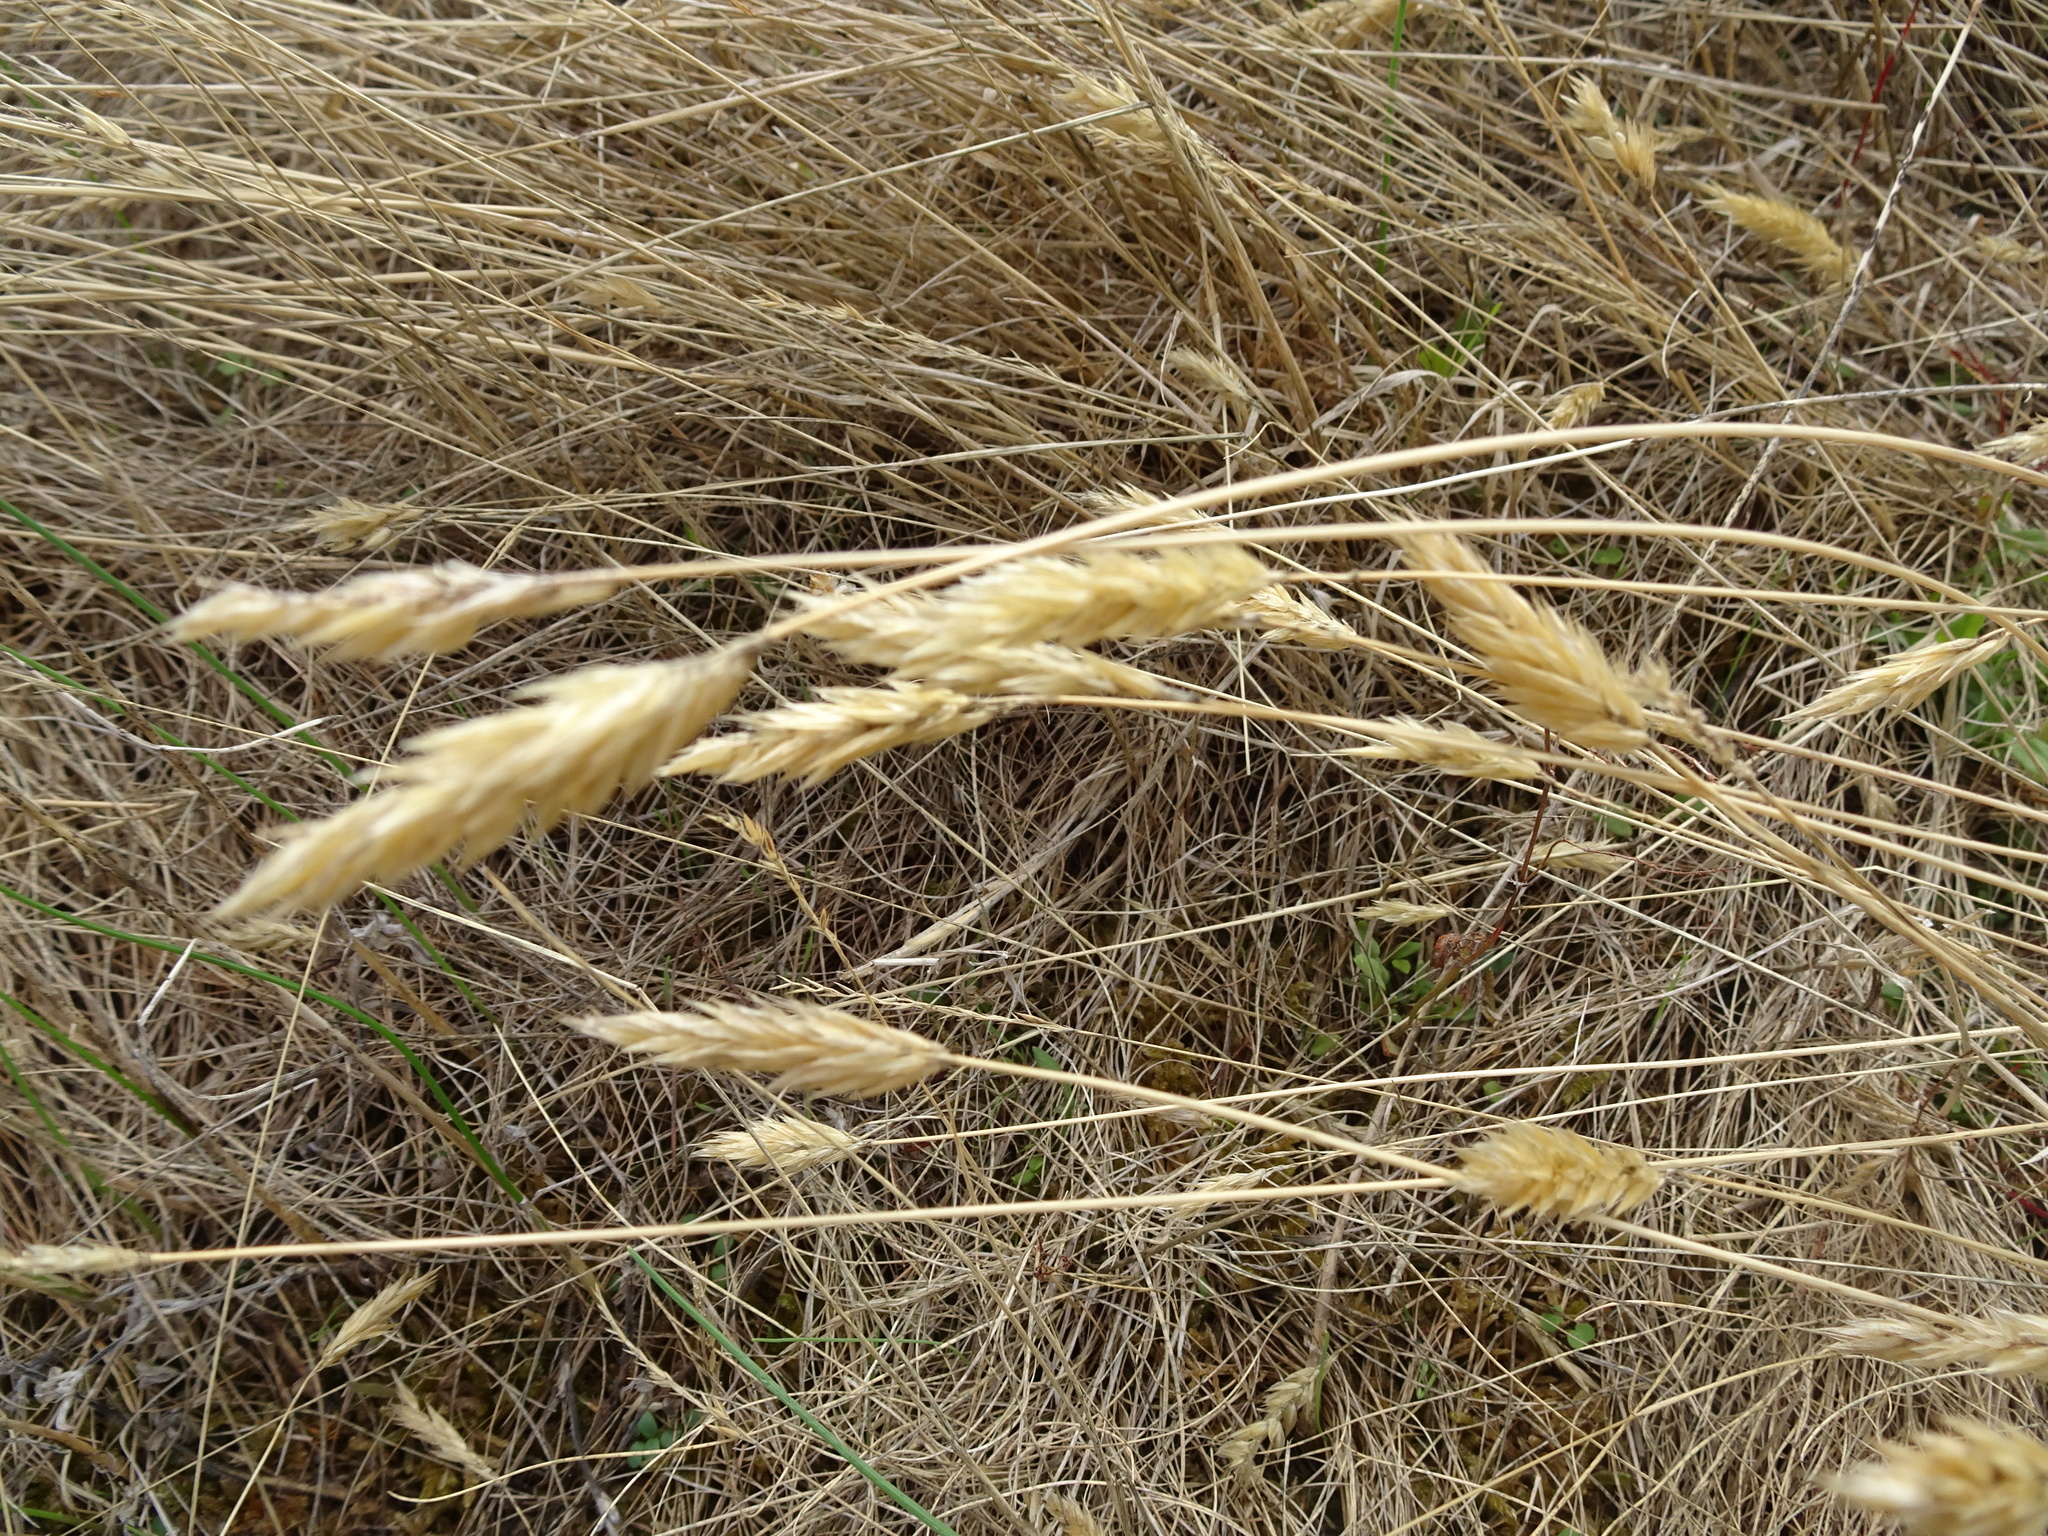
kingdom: Plantae
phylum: Tracheophyta
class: Liliopsida
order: Poales
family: Poaceae
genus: Anthoxanthum
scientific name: Anthoxanthum odoratum
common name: Sweet vernalgrass
